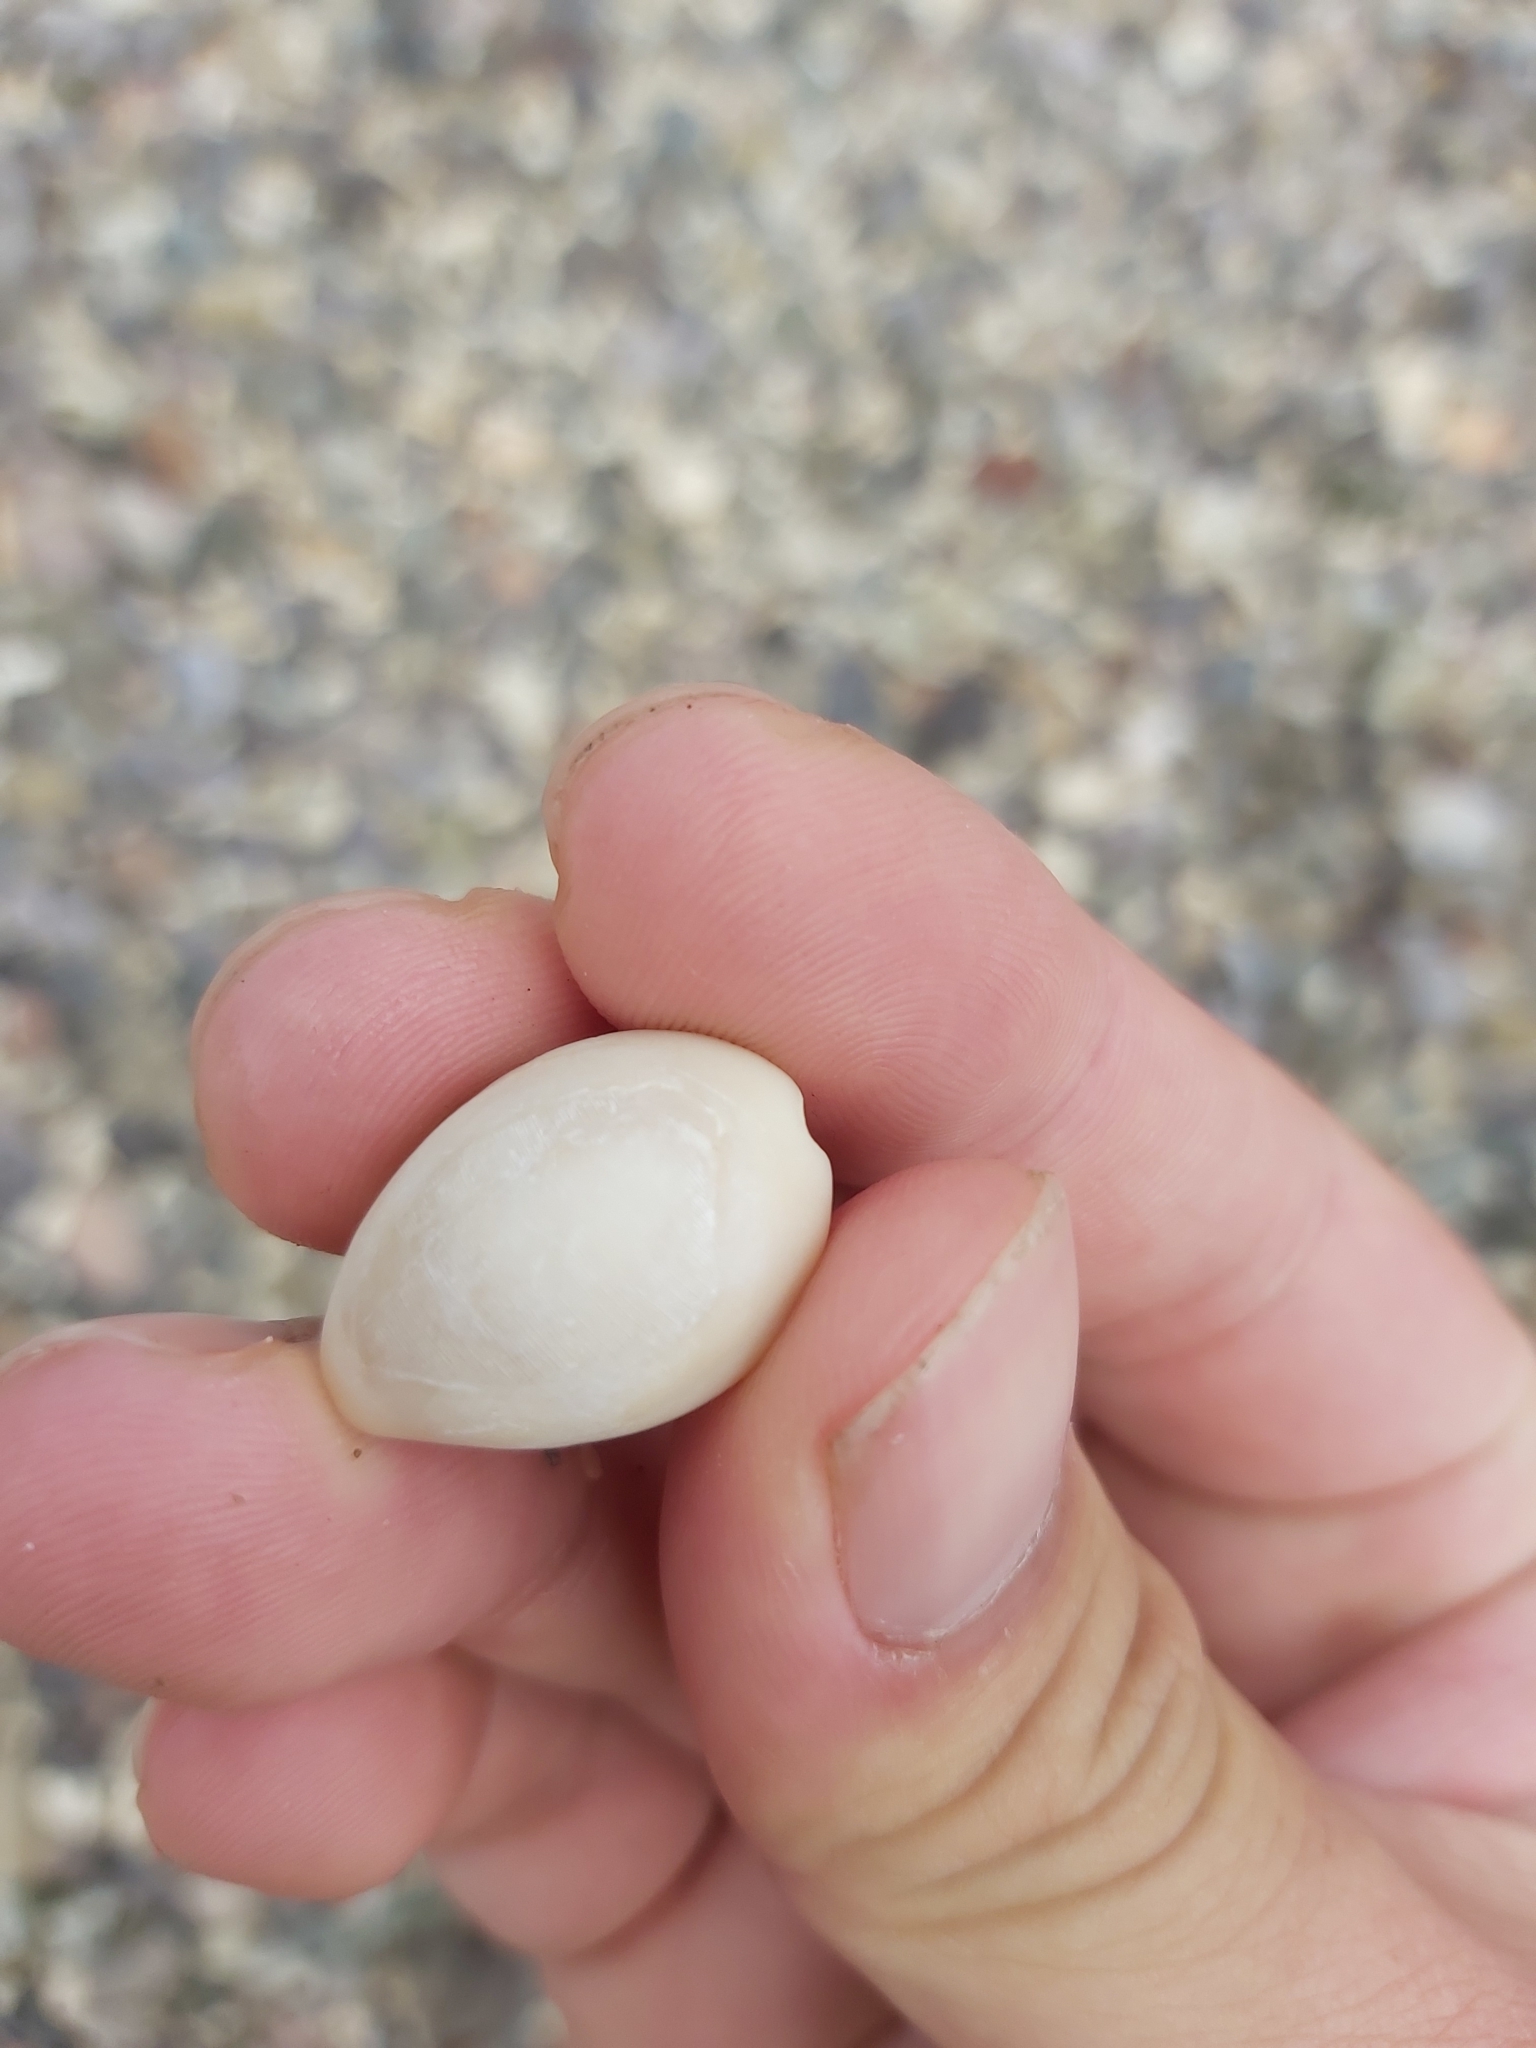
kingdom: Animalia
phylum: Mollusca
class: Gastropoda
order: Littorinimorpha
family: Cypraeidae
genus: Monetaria
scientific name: Monetaria annulus
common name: Ring cowrie
